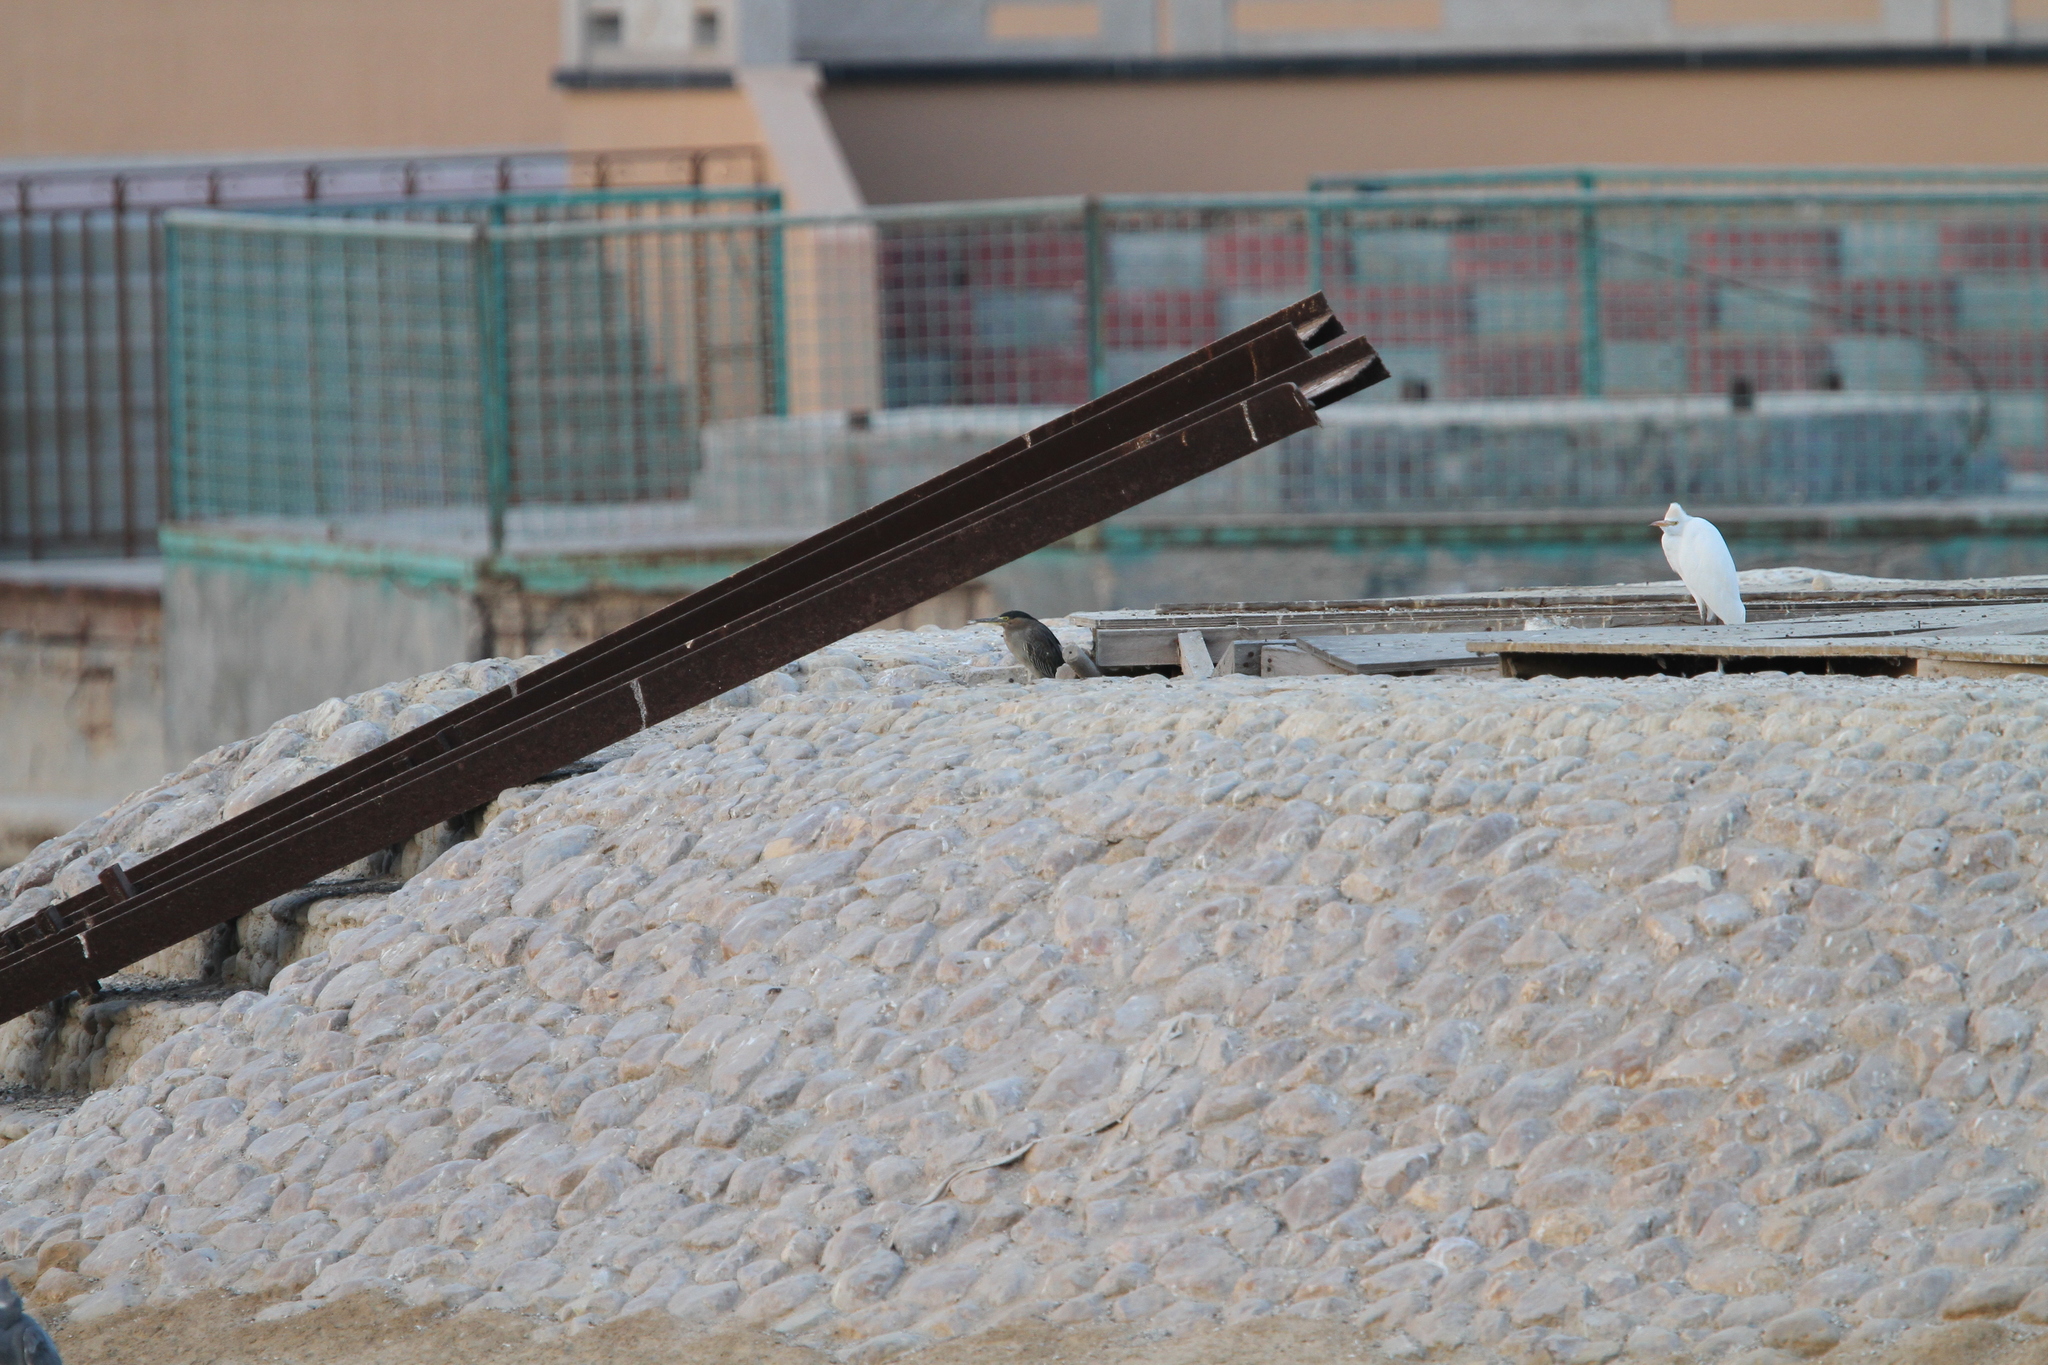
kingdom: Animalia
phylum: Chordata
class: Aves
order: Pelecaniformes
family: Ardeidae
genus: Butorides
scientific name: Butorides striata
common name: Striated heron
